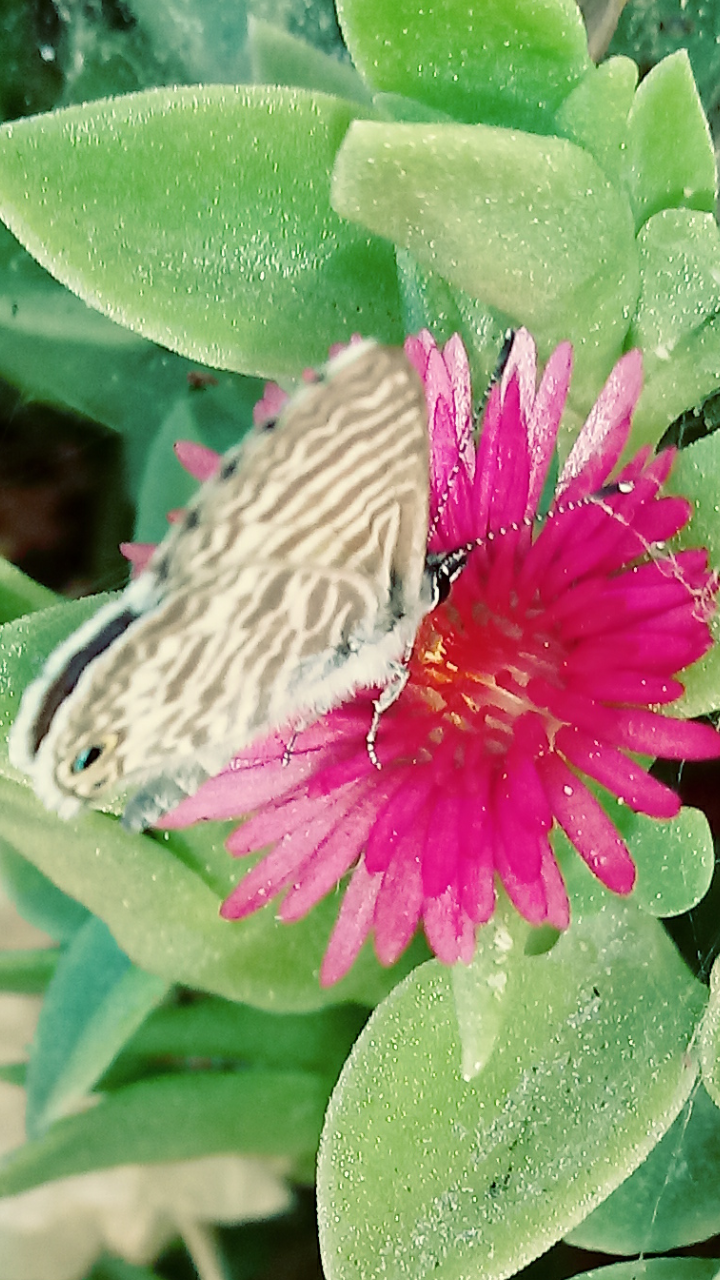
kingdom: Animalia
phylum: Arthropoda
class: Insecta
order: Lepidoptera
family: Lycaenidae
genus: Leptotes
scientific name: Leptotes marina
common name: Marine blue
